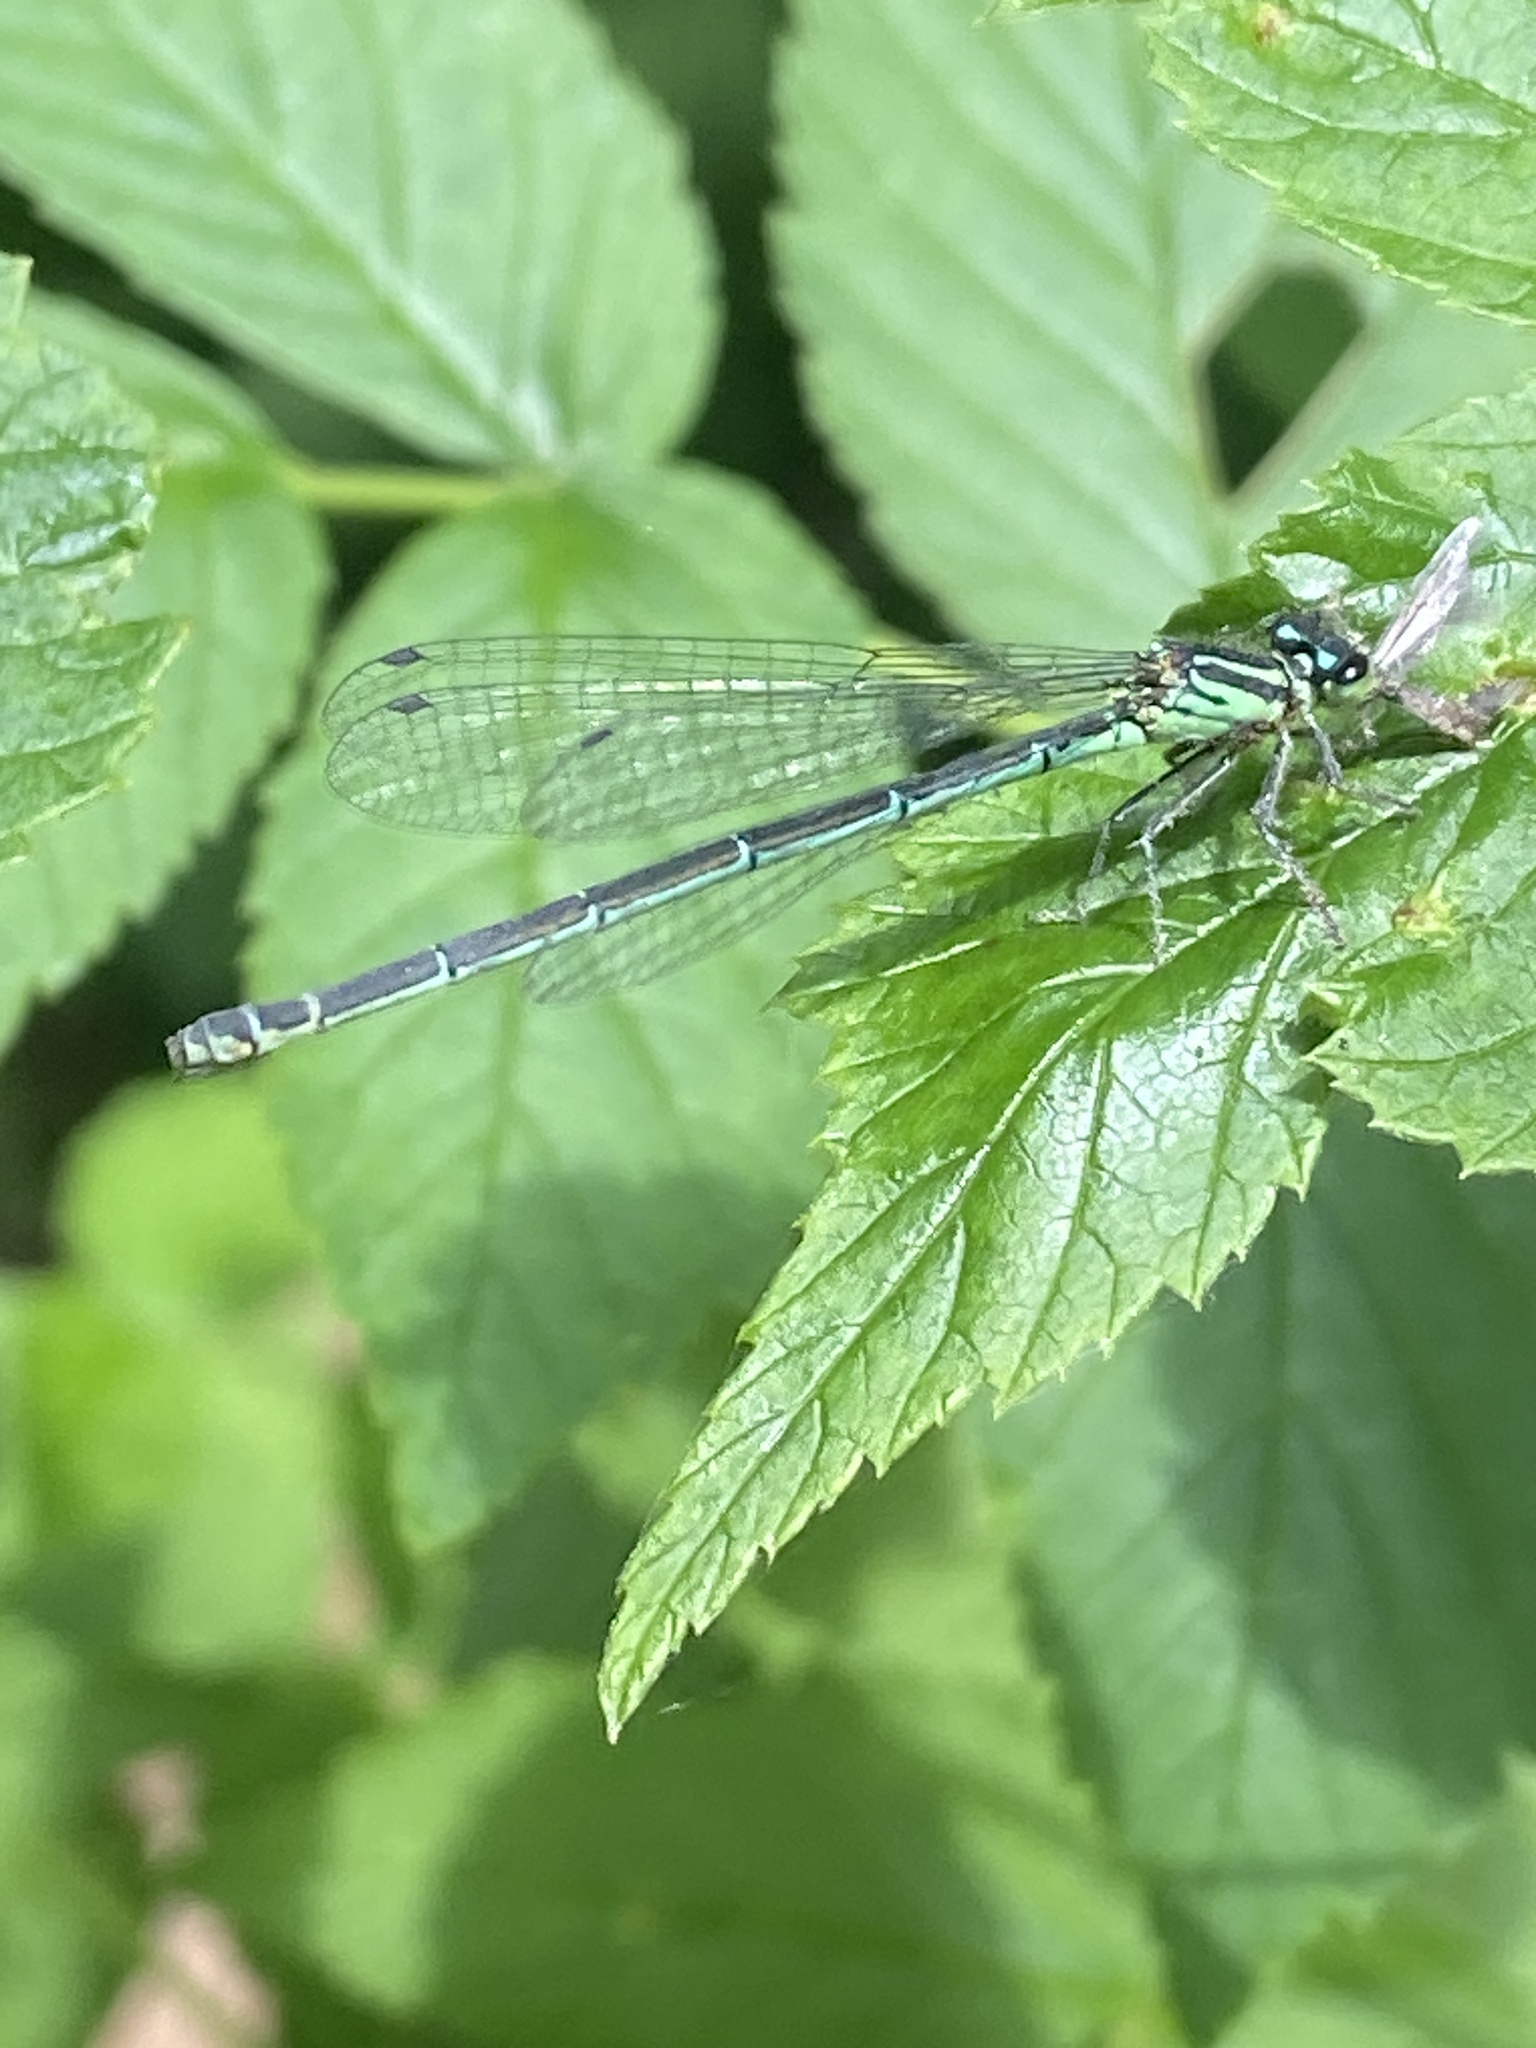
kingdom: Animalia
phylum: Arthropoda
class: Insecta
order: Odonata
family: Coenagrionidae
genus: Coenagrion
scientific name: Coenagrion puella
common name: Azure damselfly
